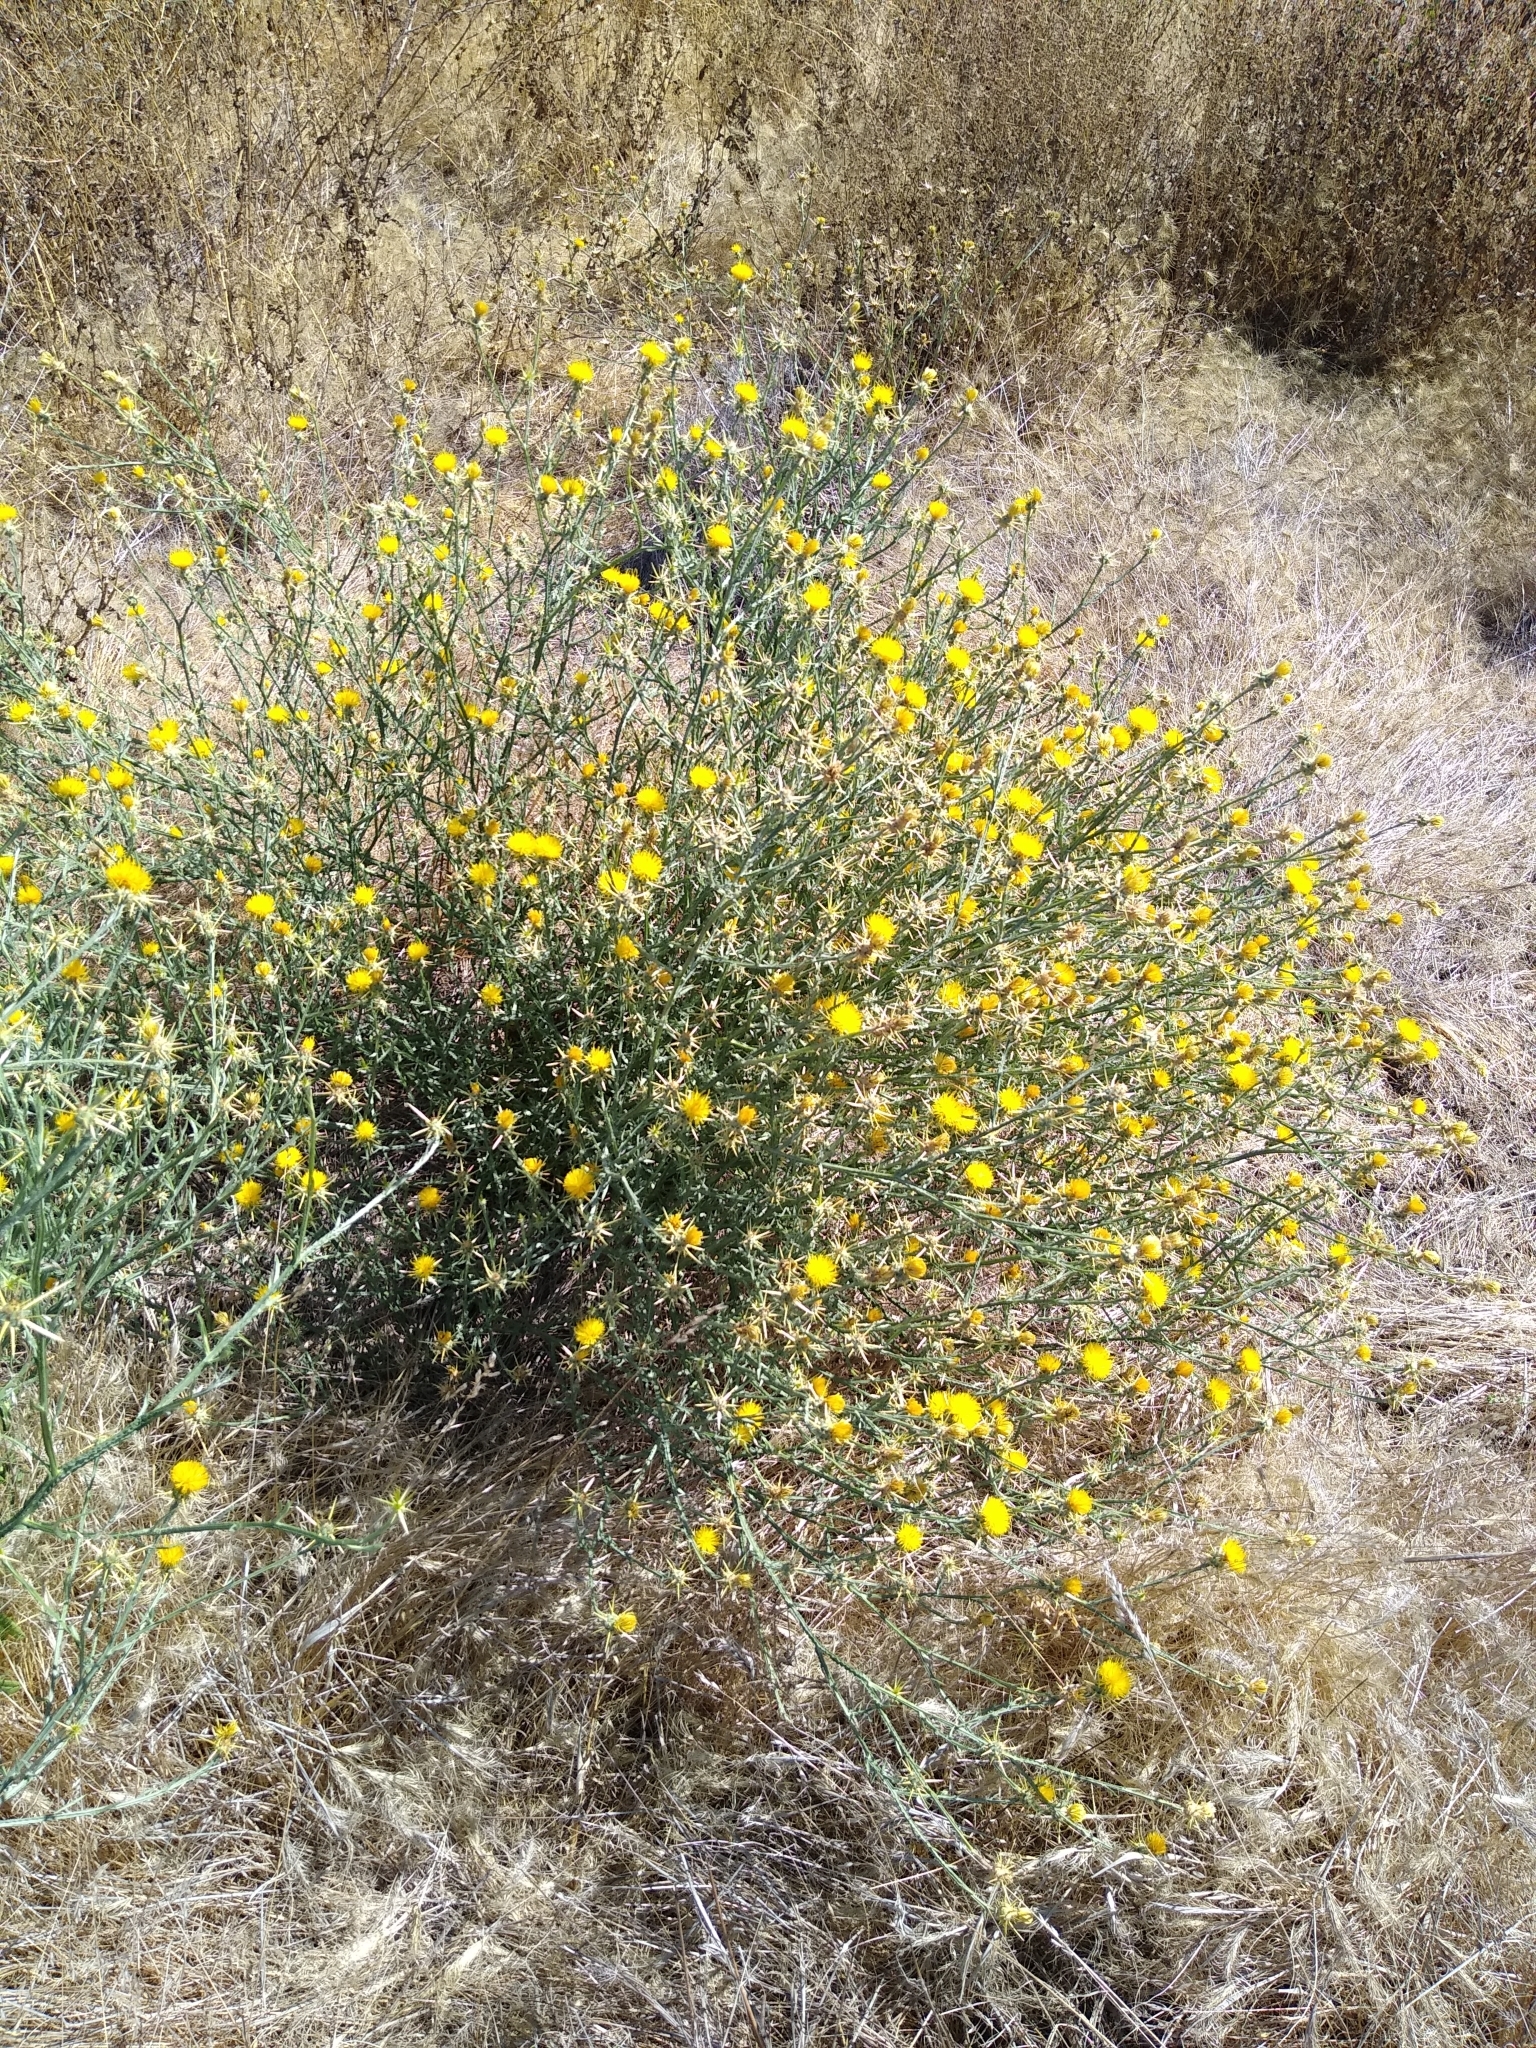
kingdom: Plantae
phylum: Tracheophyta
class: Magnoliopsida
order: Asterales
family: Asteraceae
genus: Centaurea
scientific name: Centaurea solstitialis
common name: Yellow star-thistle
